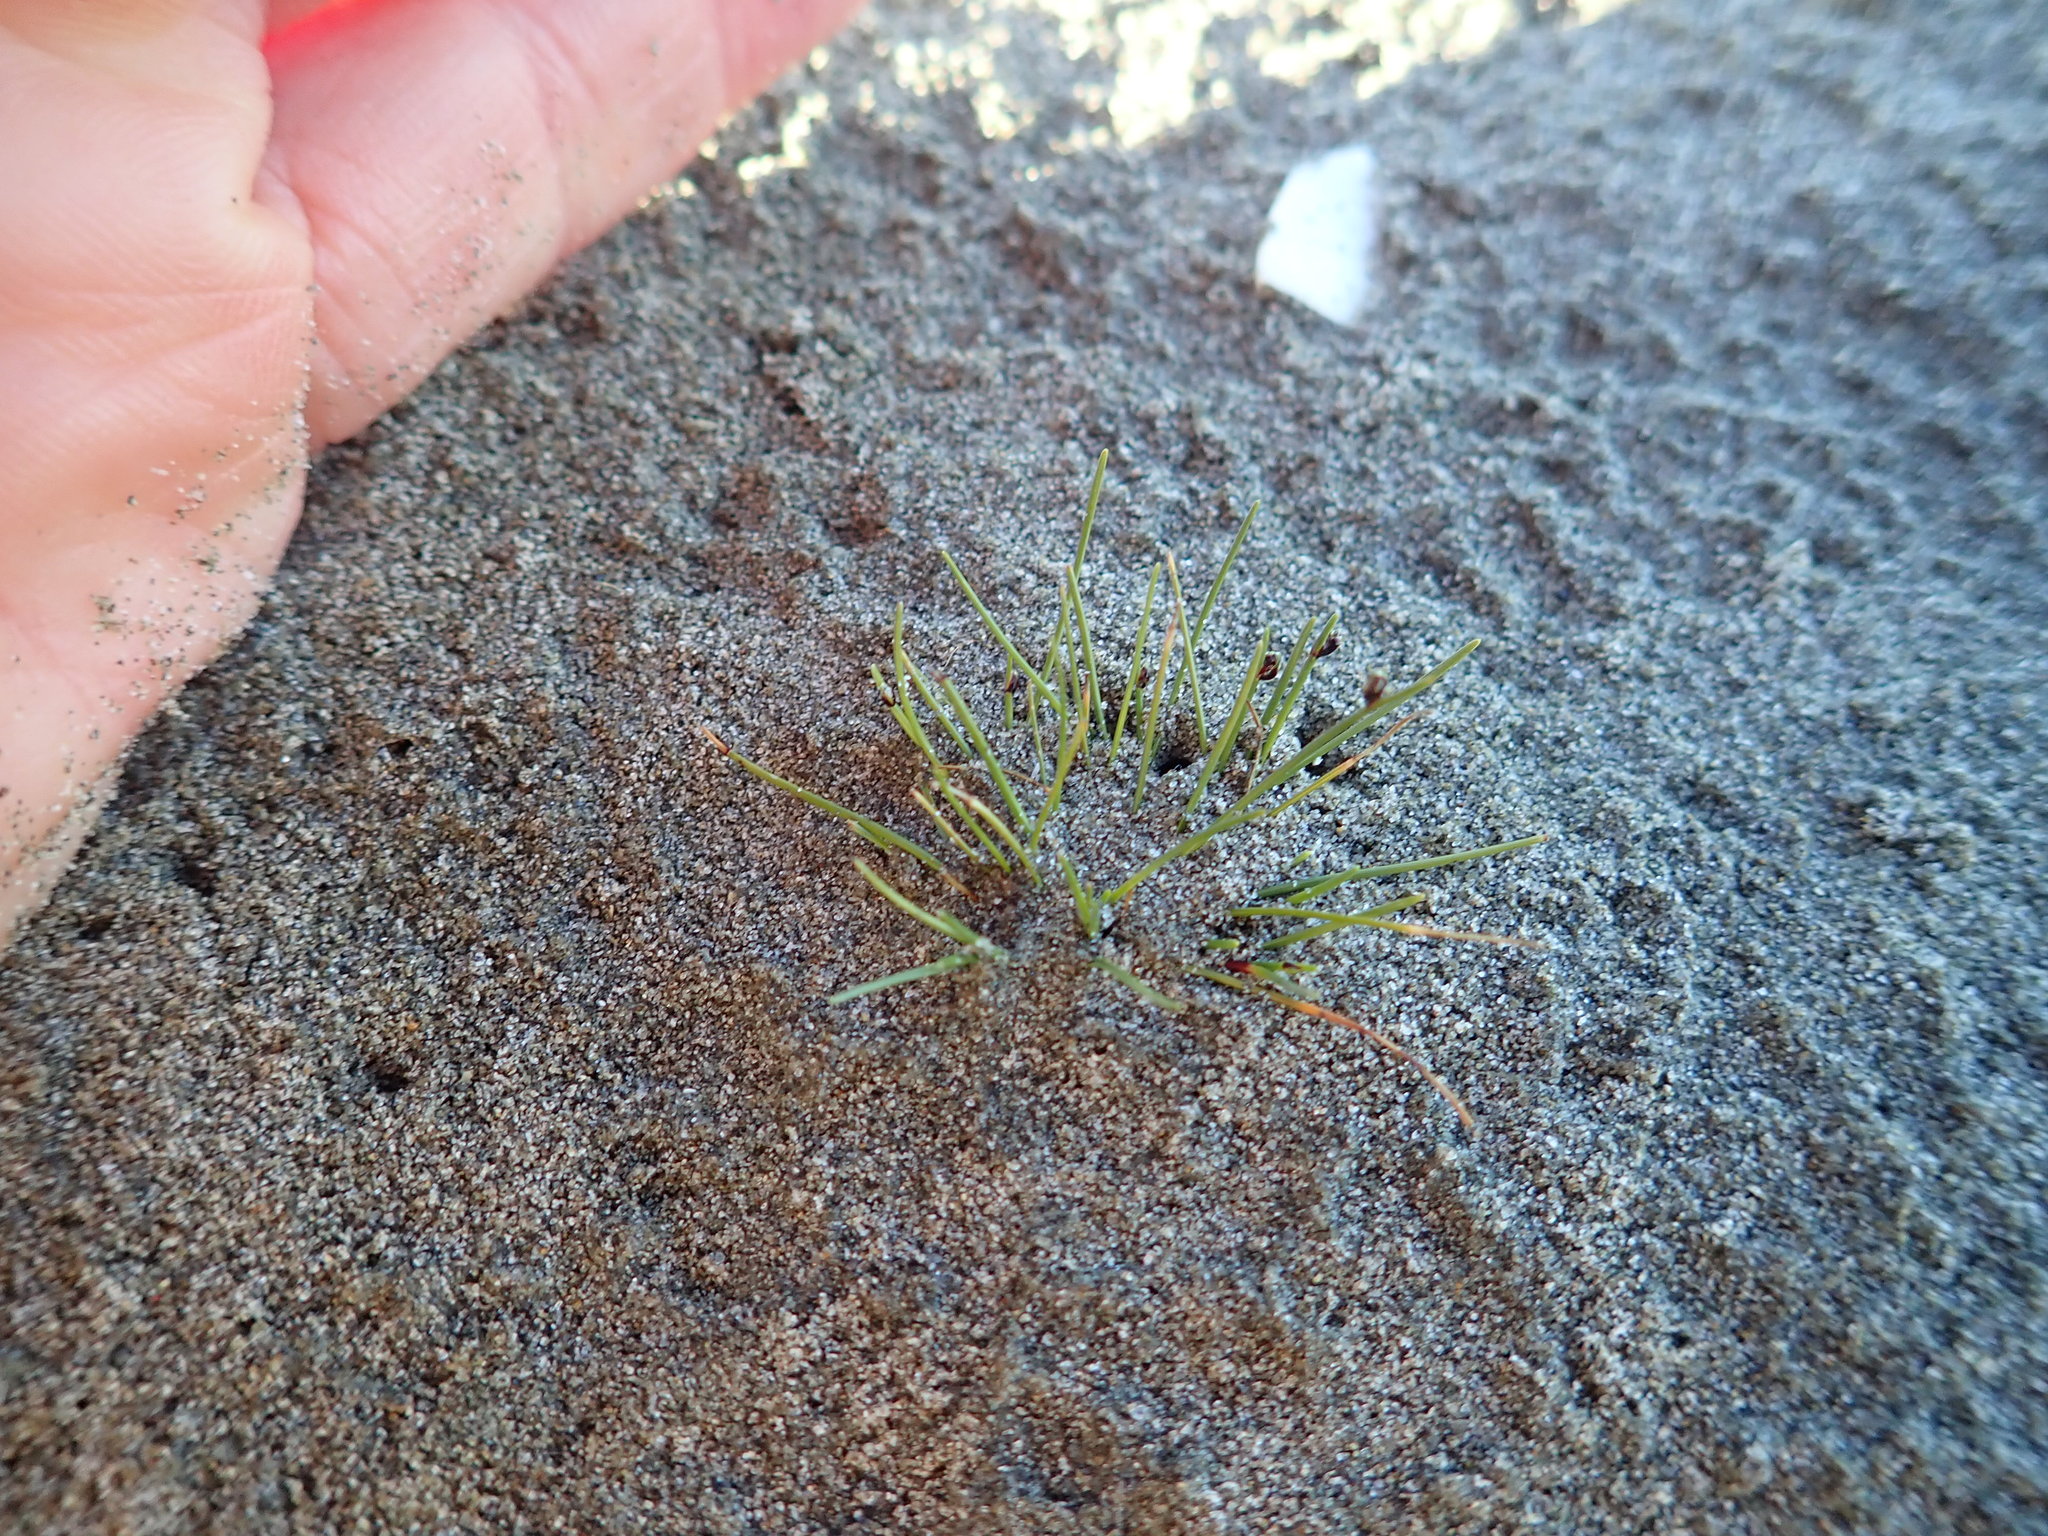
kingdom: Plantae
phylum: Tracheophyta
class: Liliopsida
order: Poales
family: Cyperaceae
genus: Isolepis
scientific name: Isolepis cernua
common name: Slender club-rush
